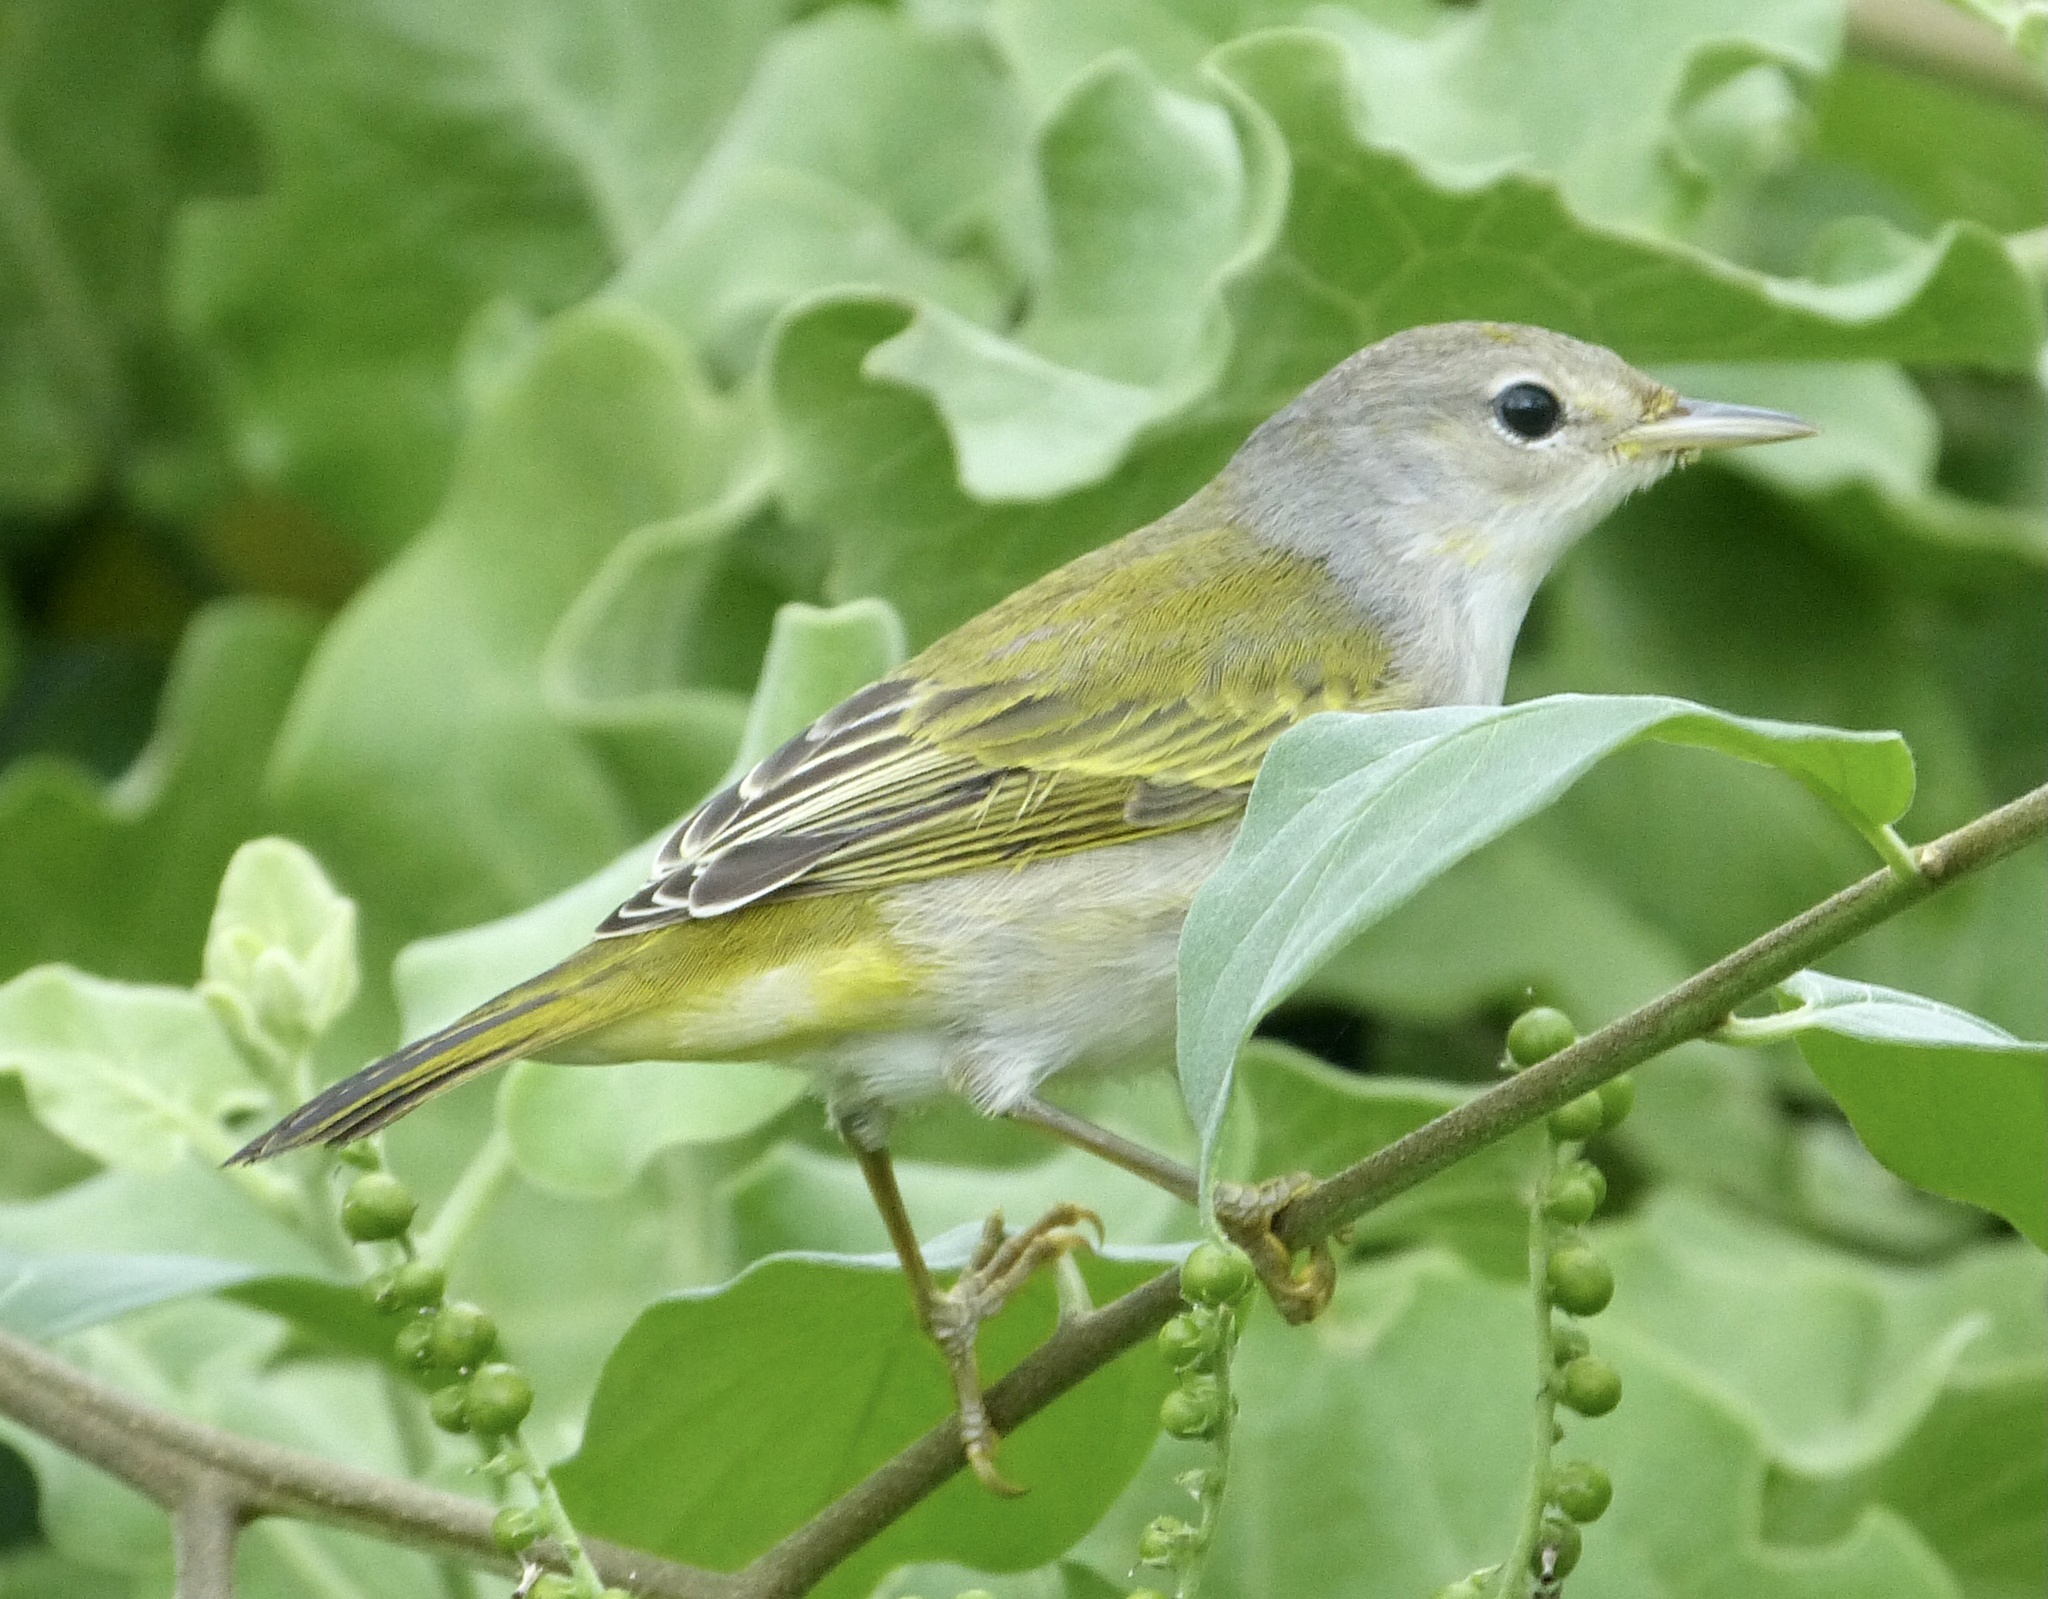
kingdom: Animalia
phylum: Chordata
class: Aves
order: Passeriformes
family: Parulidae
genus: Setophaga
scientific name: Setophaga petechia
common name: Yellow warbler
